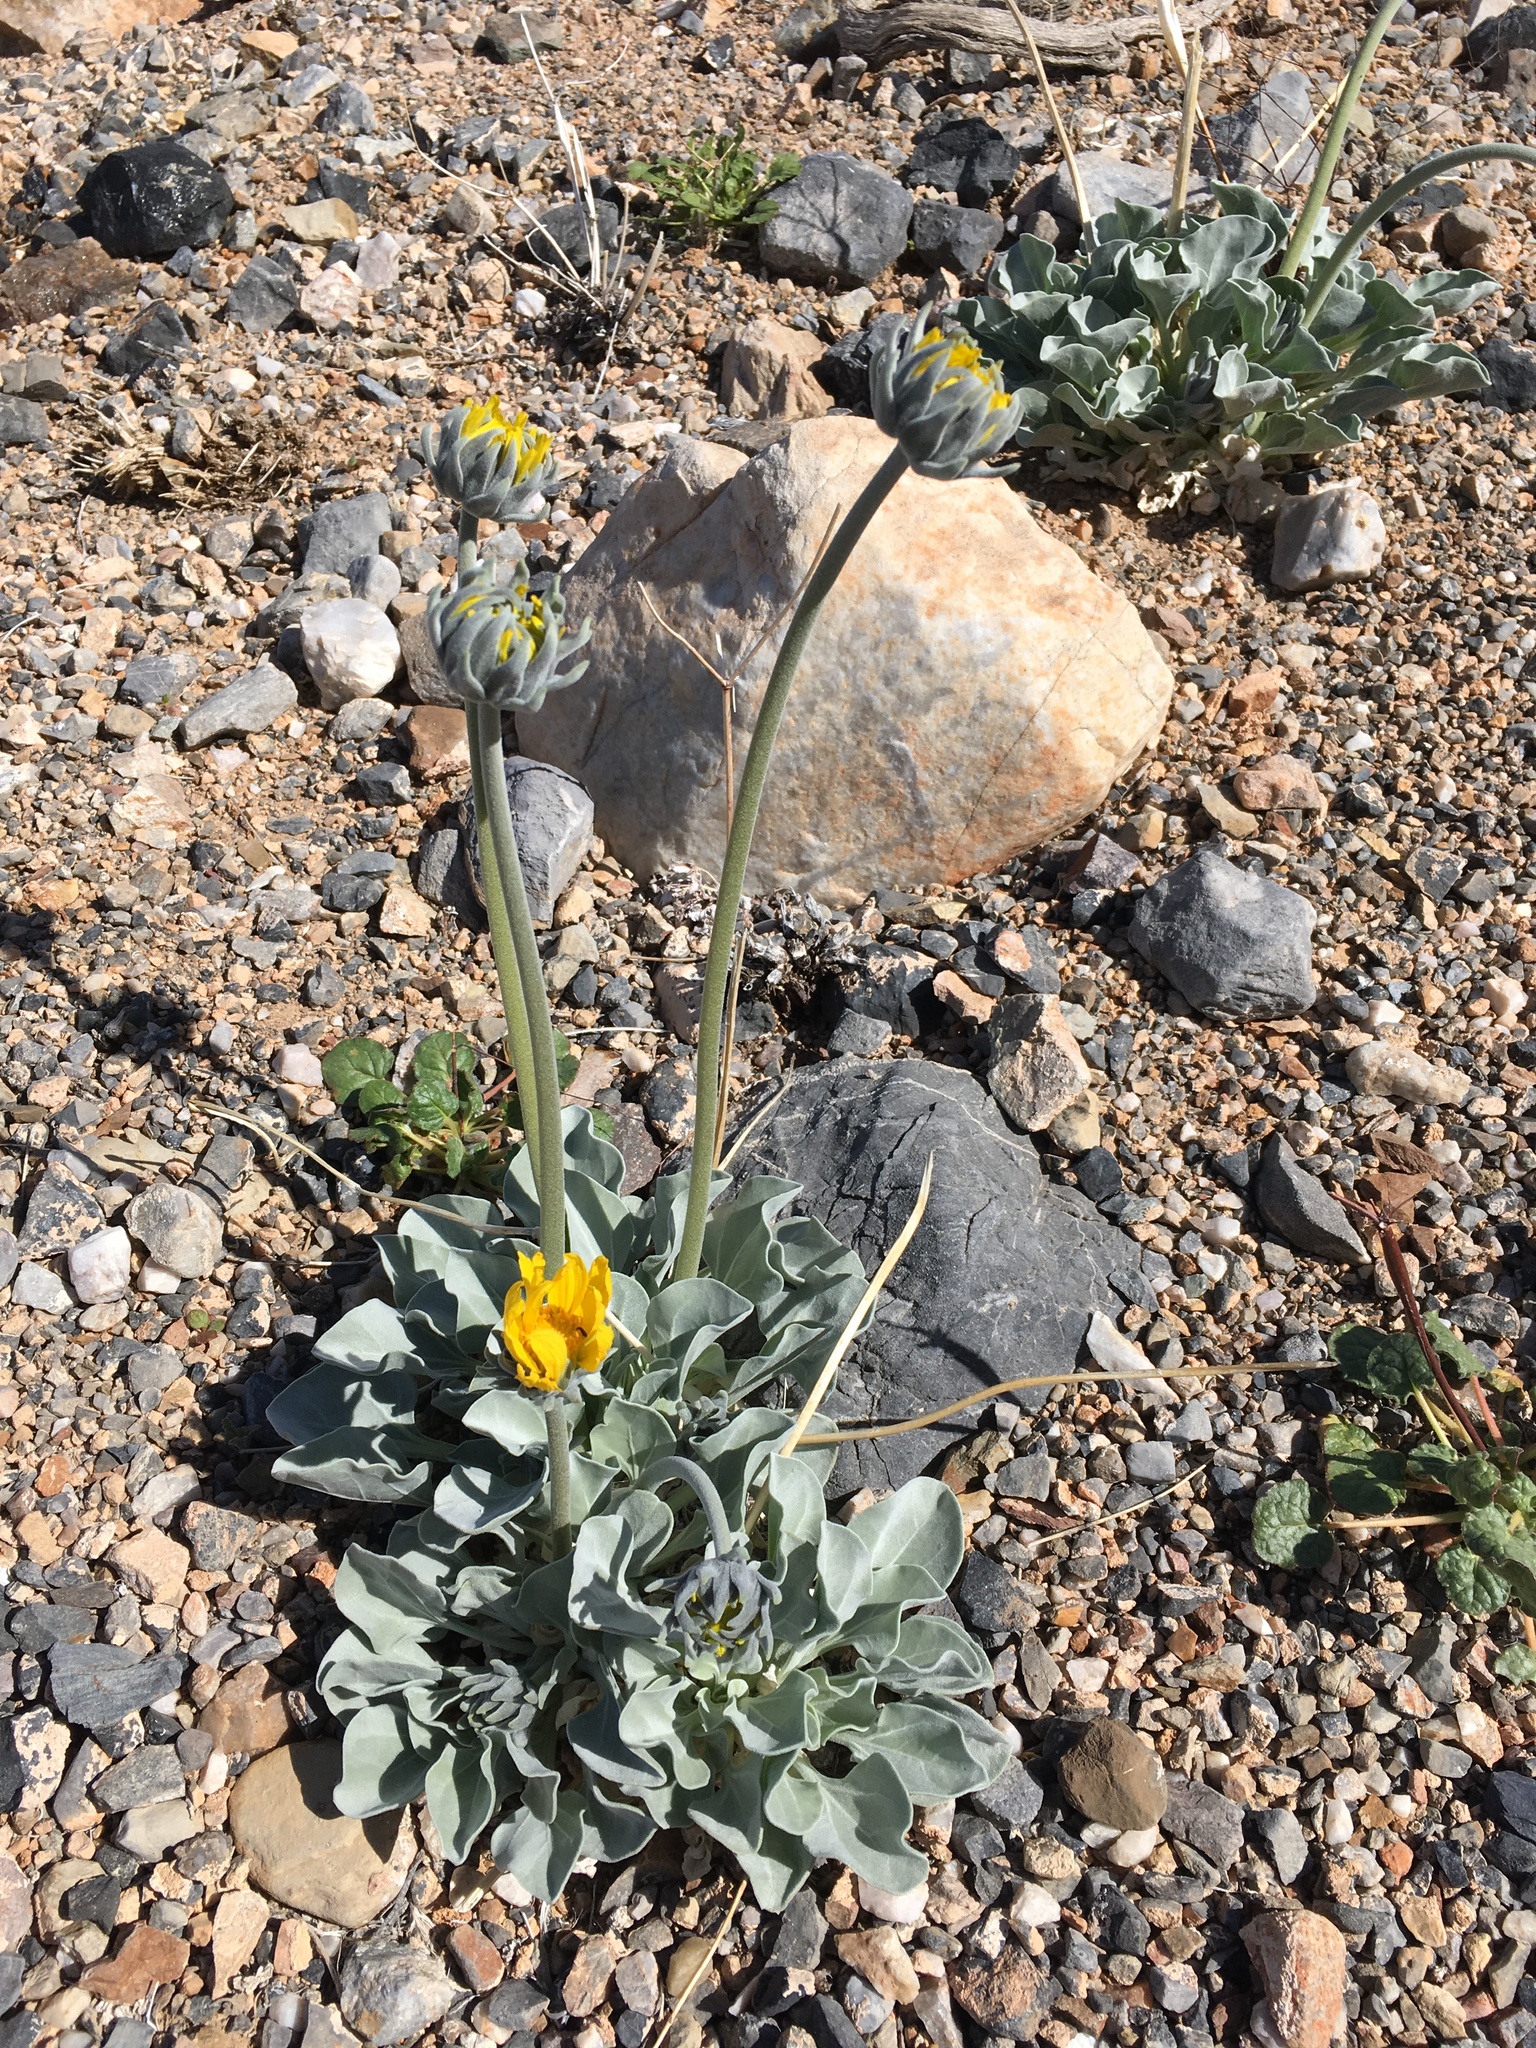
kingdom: Plantae
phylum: Tracheophyta
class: Magnoliopsida
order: Asterales
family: Asteraceae
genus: Enceliopsis
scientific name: Enceliopsis nudicaulis
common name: Naked-stem daisy
